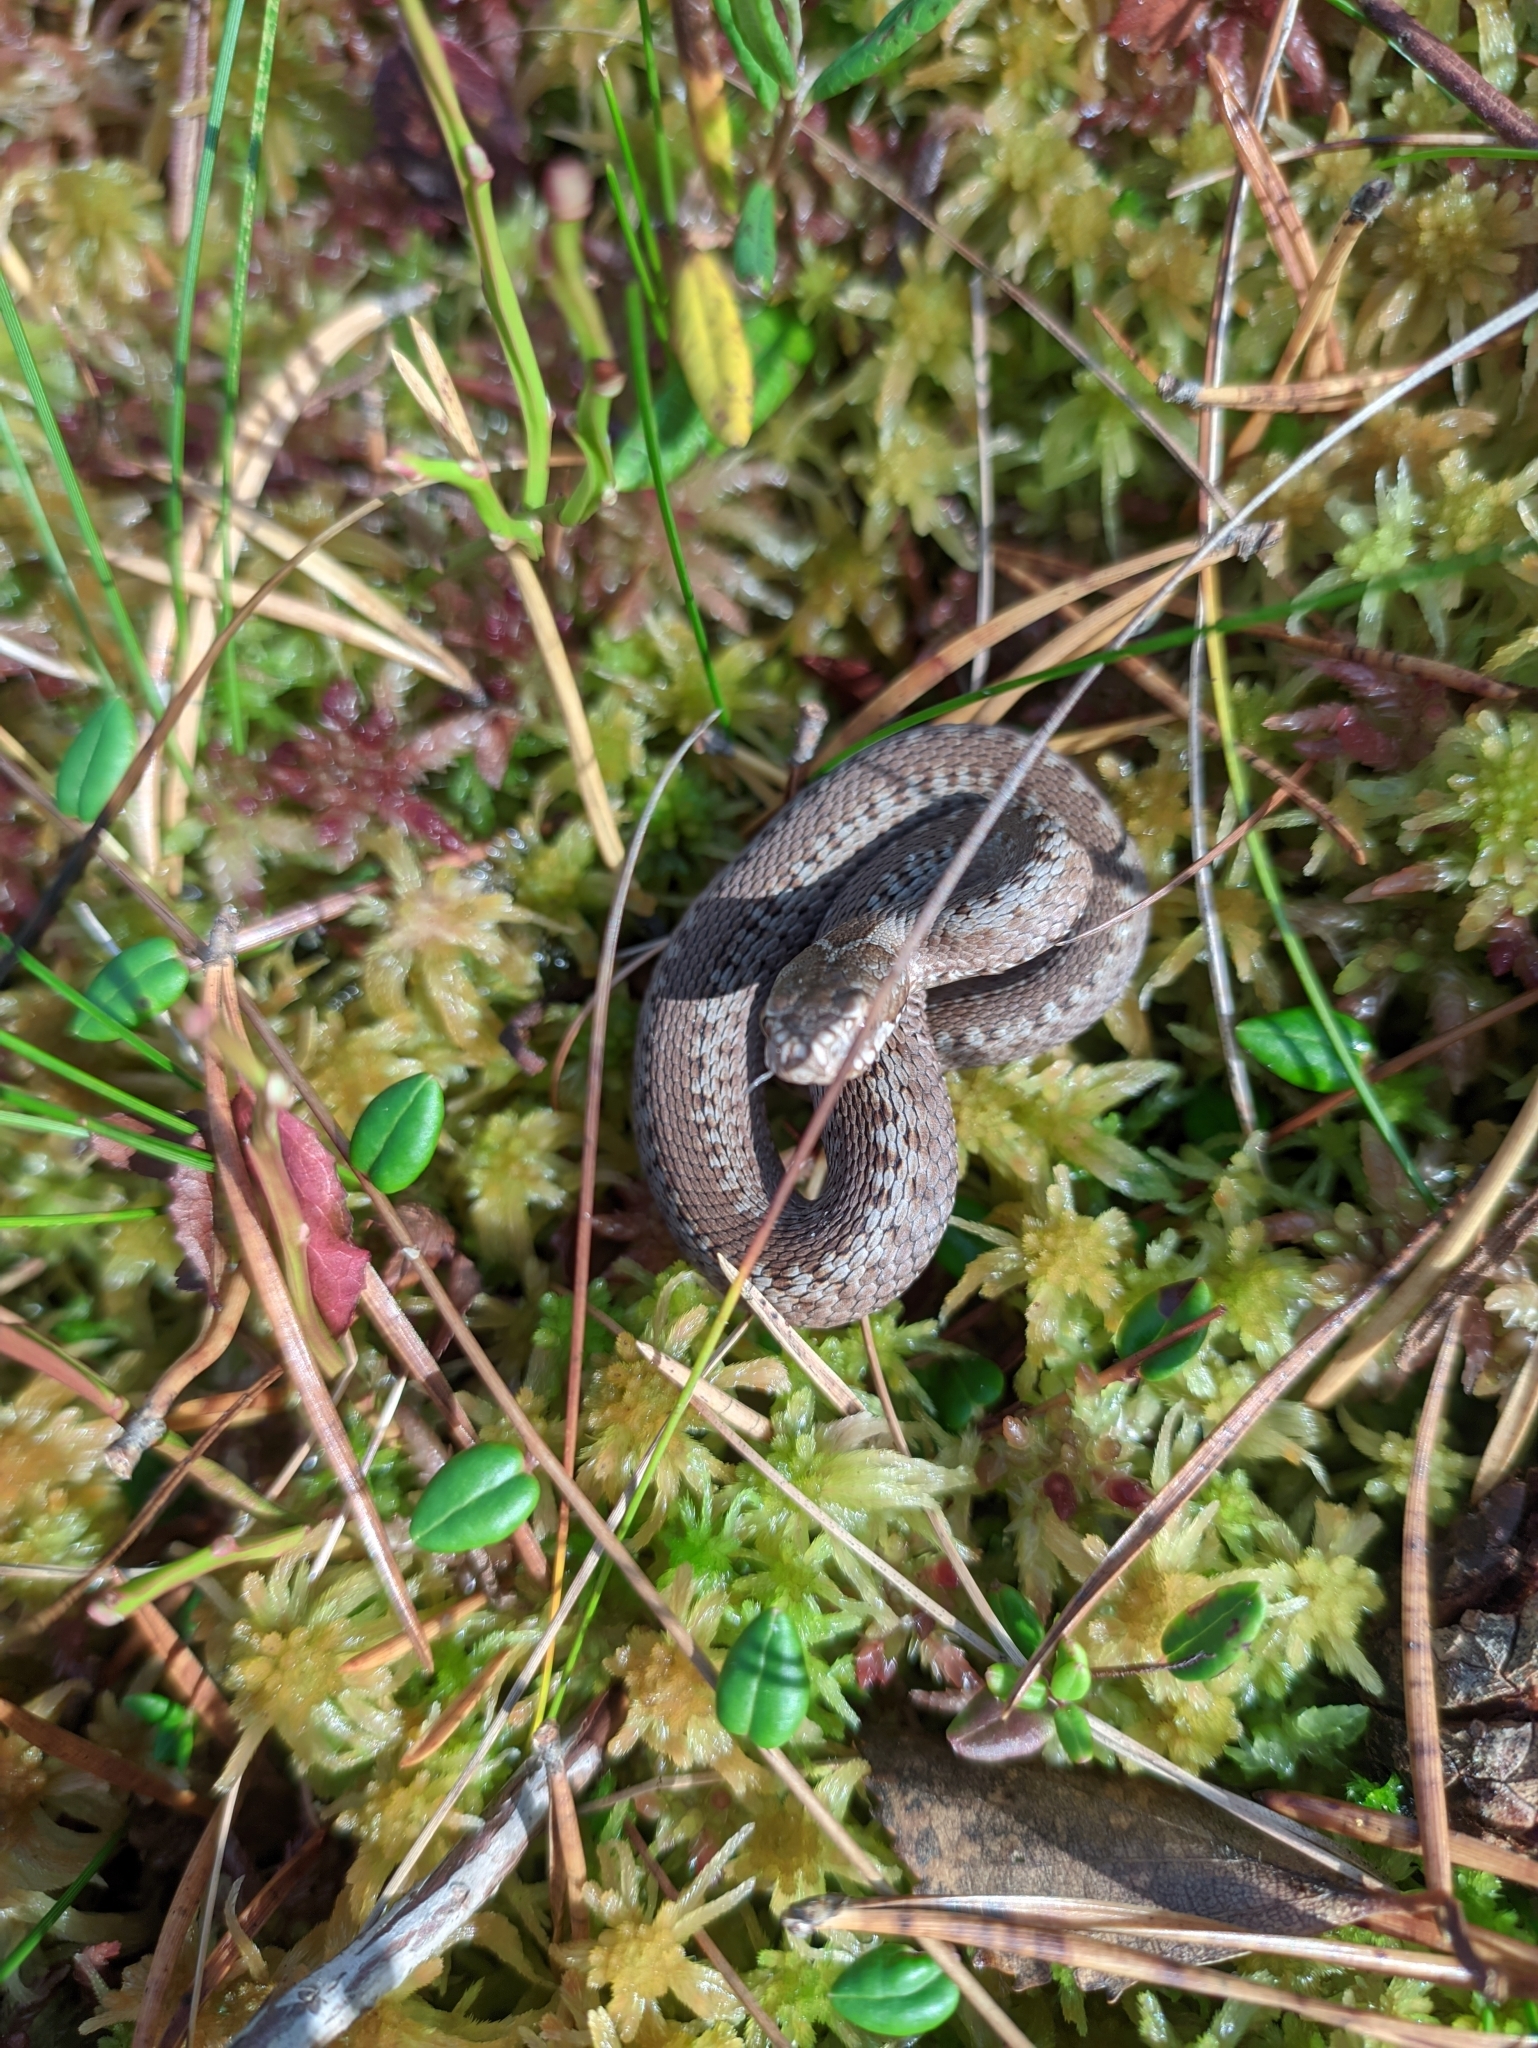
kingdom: Animalia
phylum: Chordata
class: Squamata
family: Viperidae
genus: Vipera
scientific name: Vipera berus
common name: Adder
